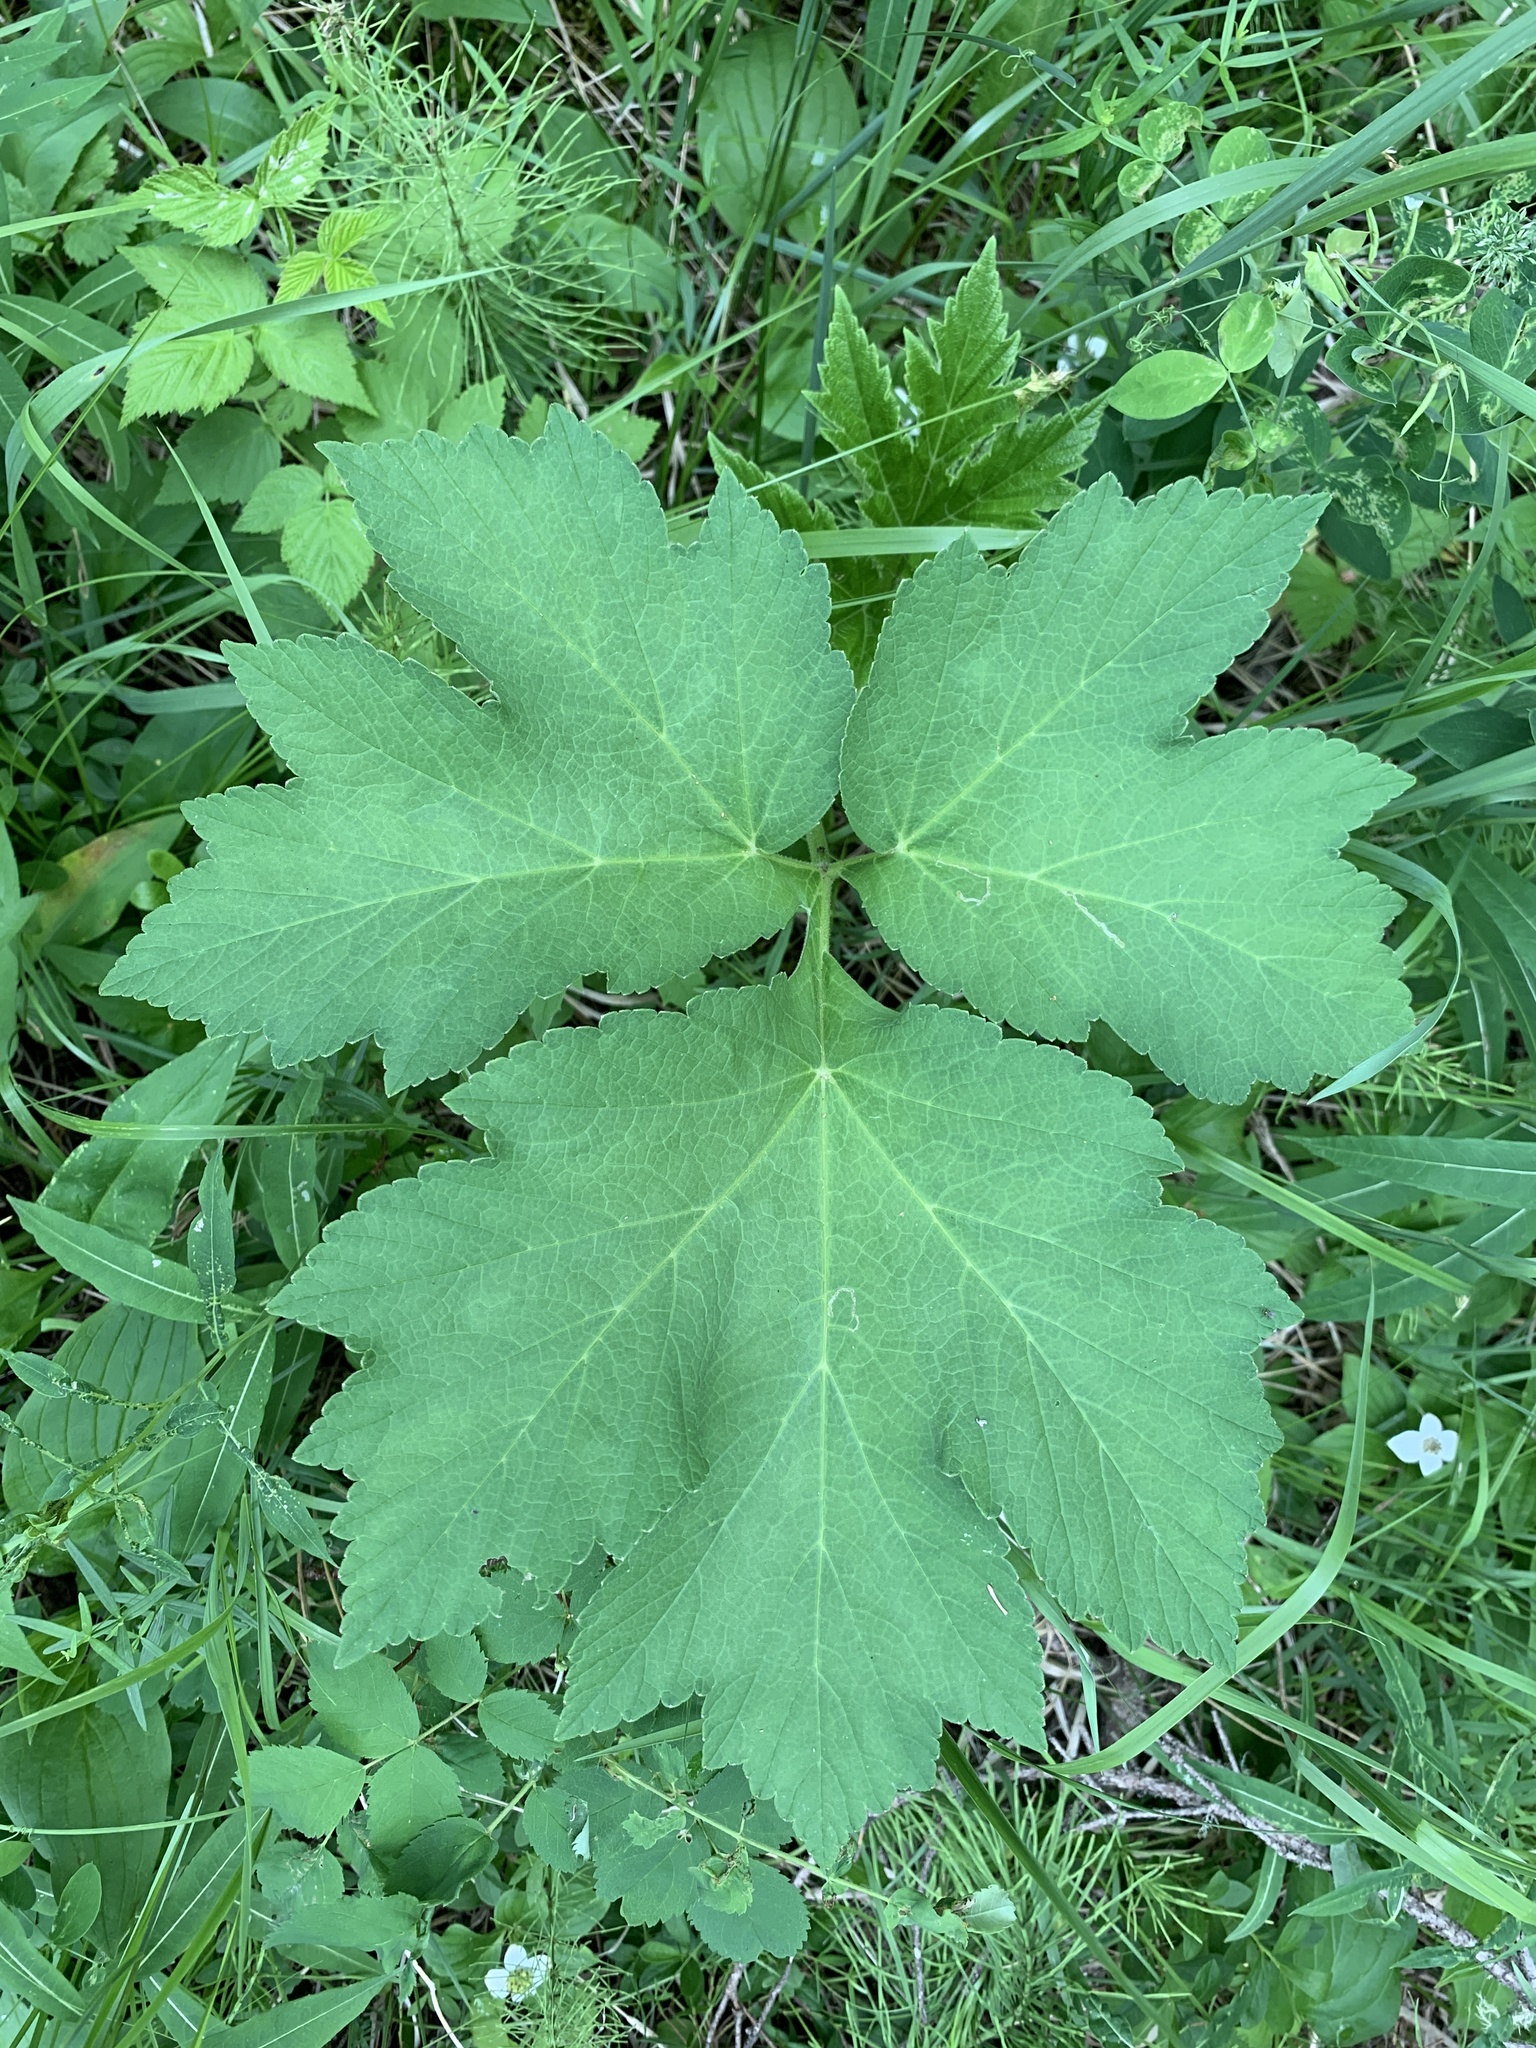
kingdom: Plantae
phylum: Tracheophyta
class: Magnoliopsida
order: Apiales
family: Apiaceae
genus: Heracleum
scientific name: Heracleum maximum
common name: American cow parsnip
